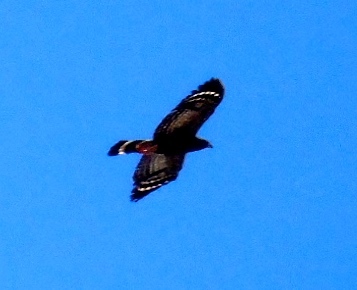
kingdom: Animalia
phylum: Chordata
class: Aves
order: Accipitriformes
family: Accipitridae
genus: Geranospiza
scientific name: Geranospiza caerulescens
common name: Crane hawk
